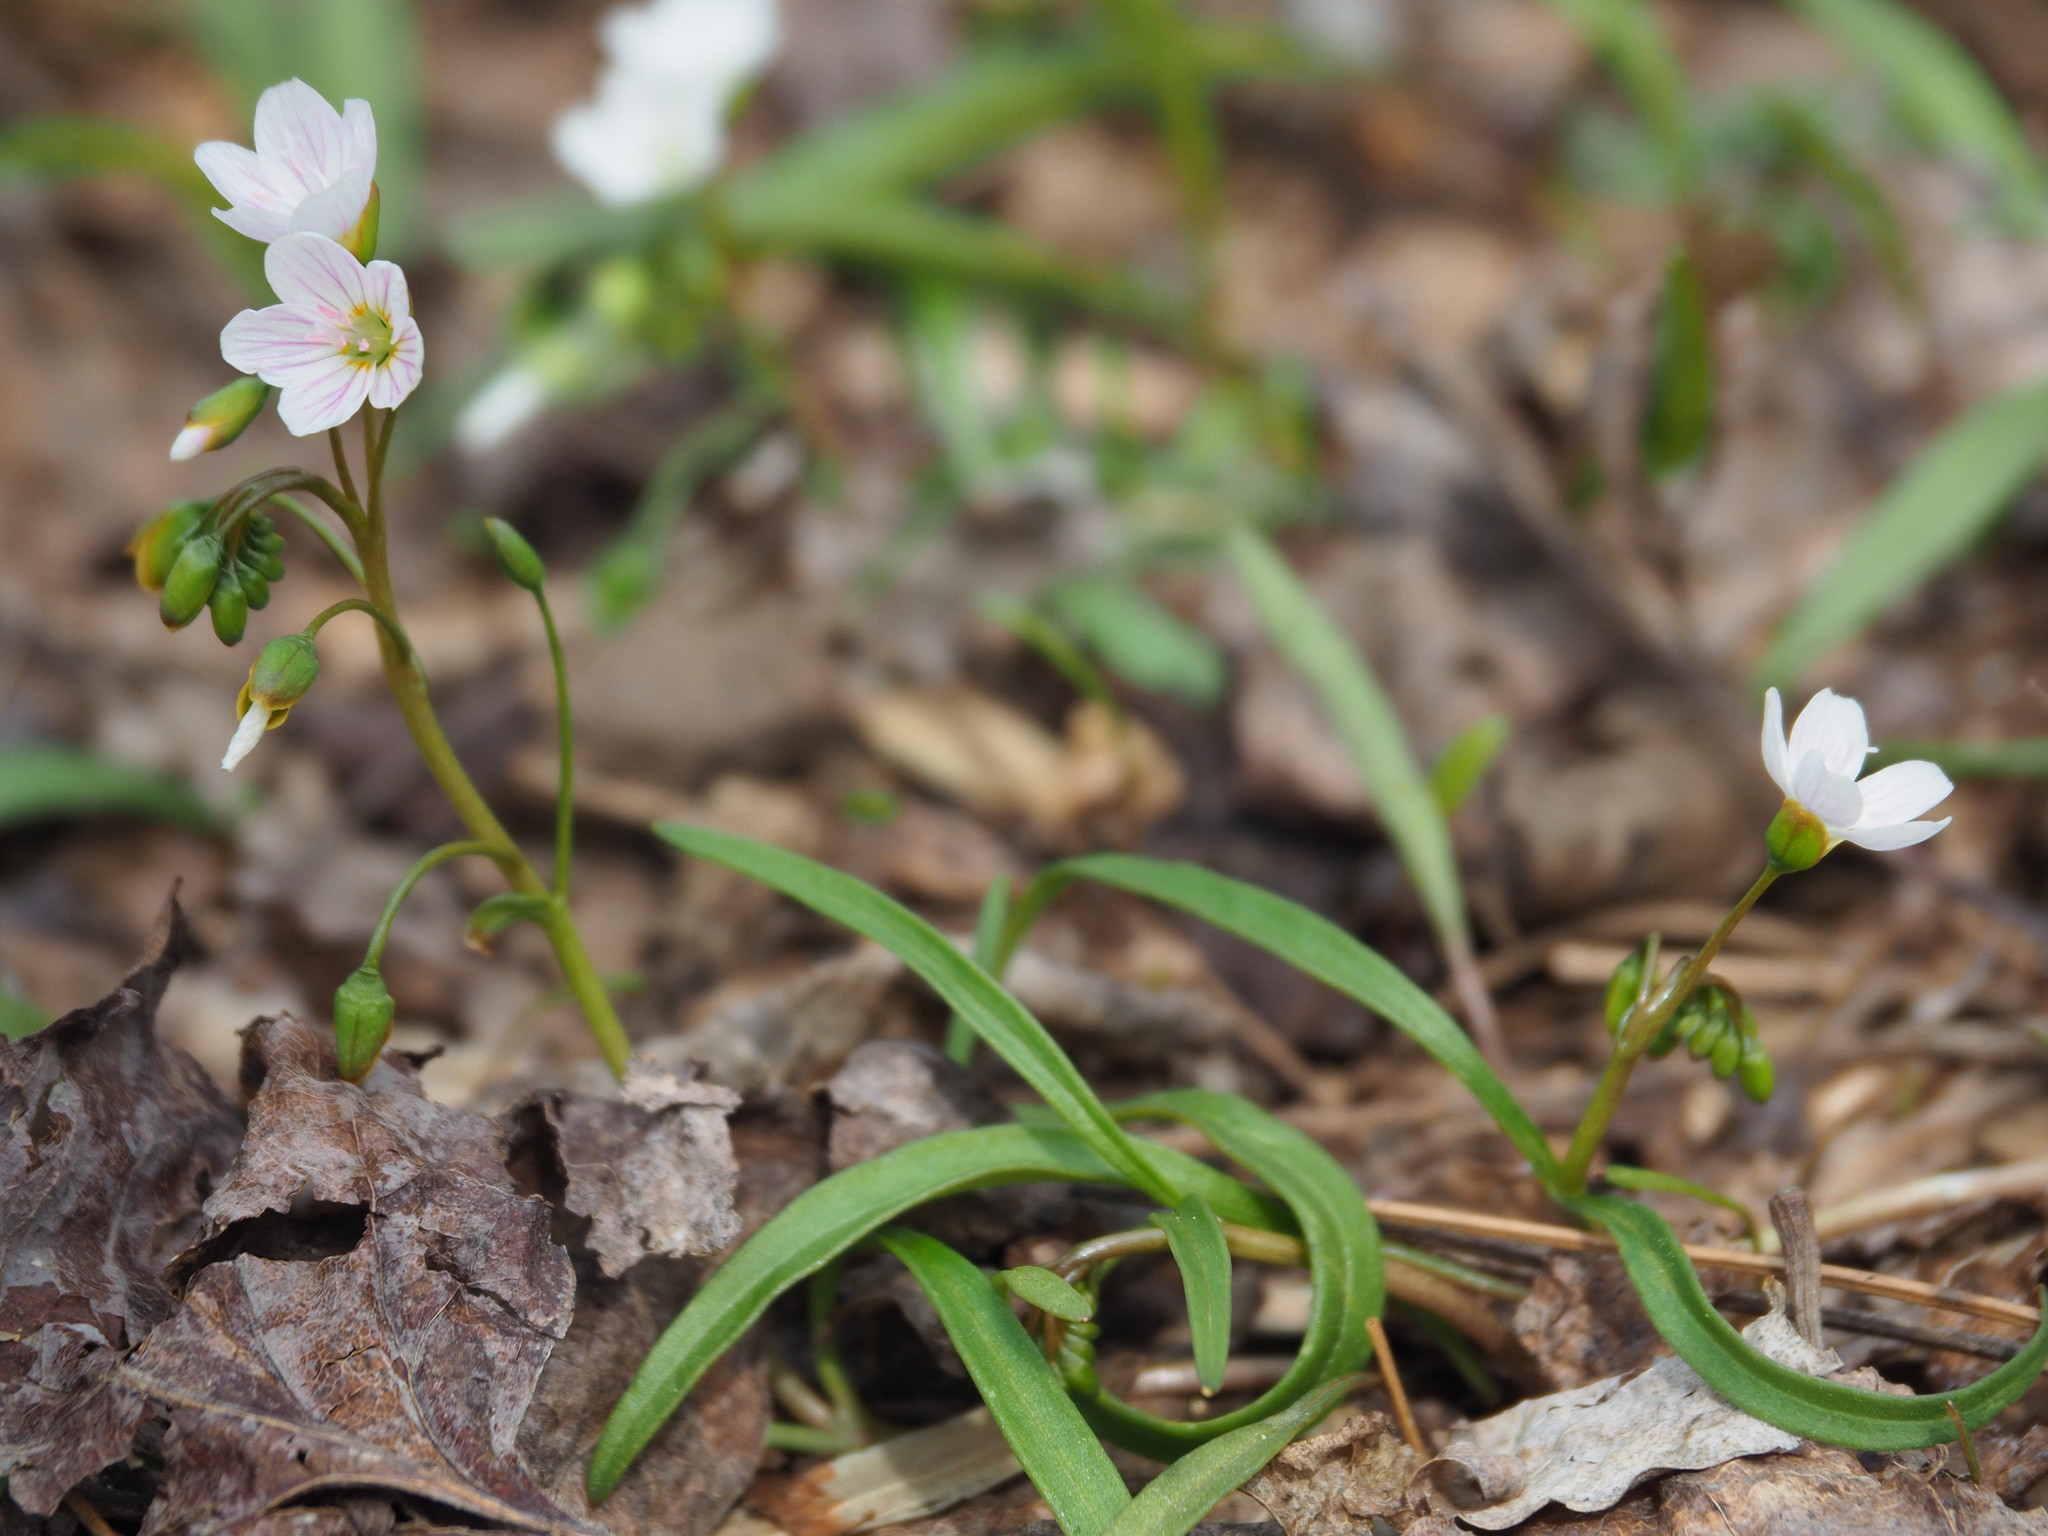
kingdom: Plantae
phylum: Tracheophyta
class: Magnoliopsida
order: Caryophyllales
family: Montiaceae
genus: Claytonia
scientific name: Claytonia virginica
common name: Virginia springbeauty
